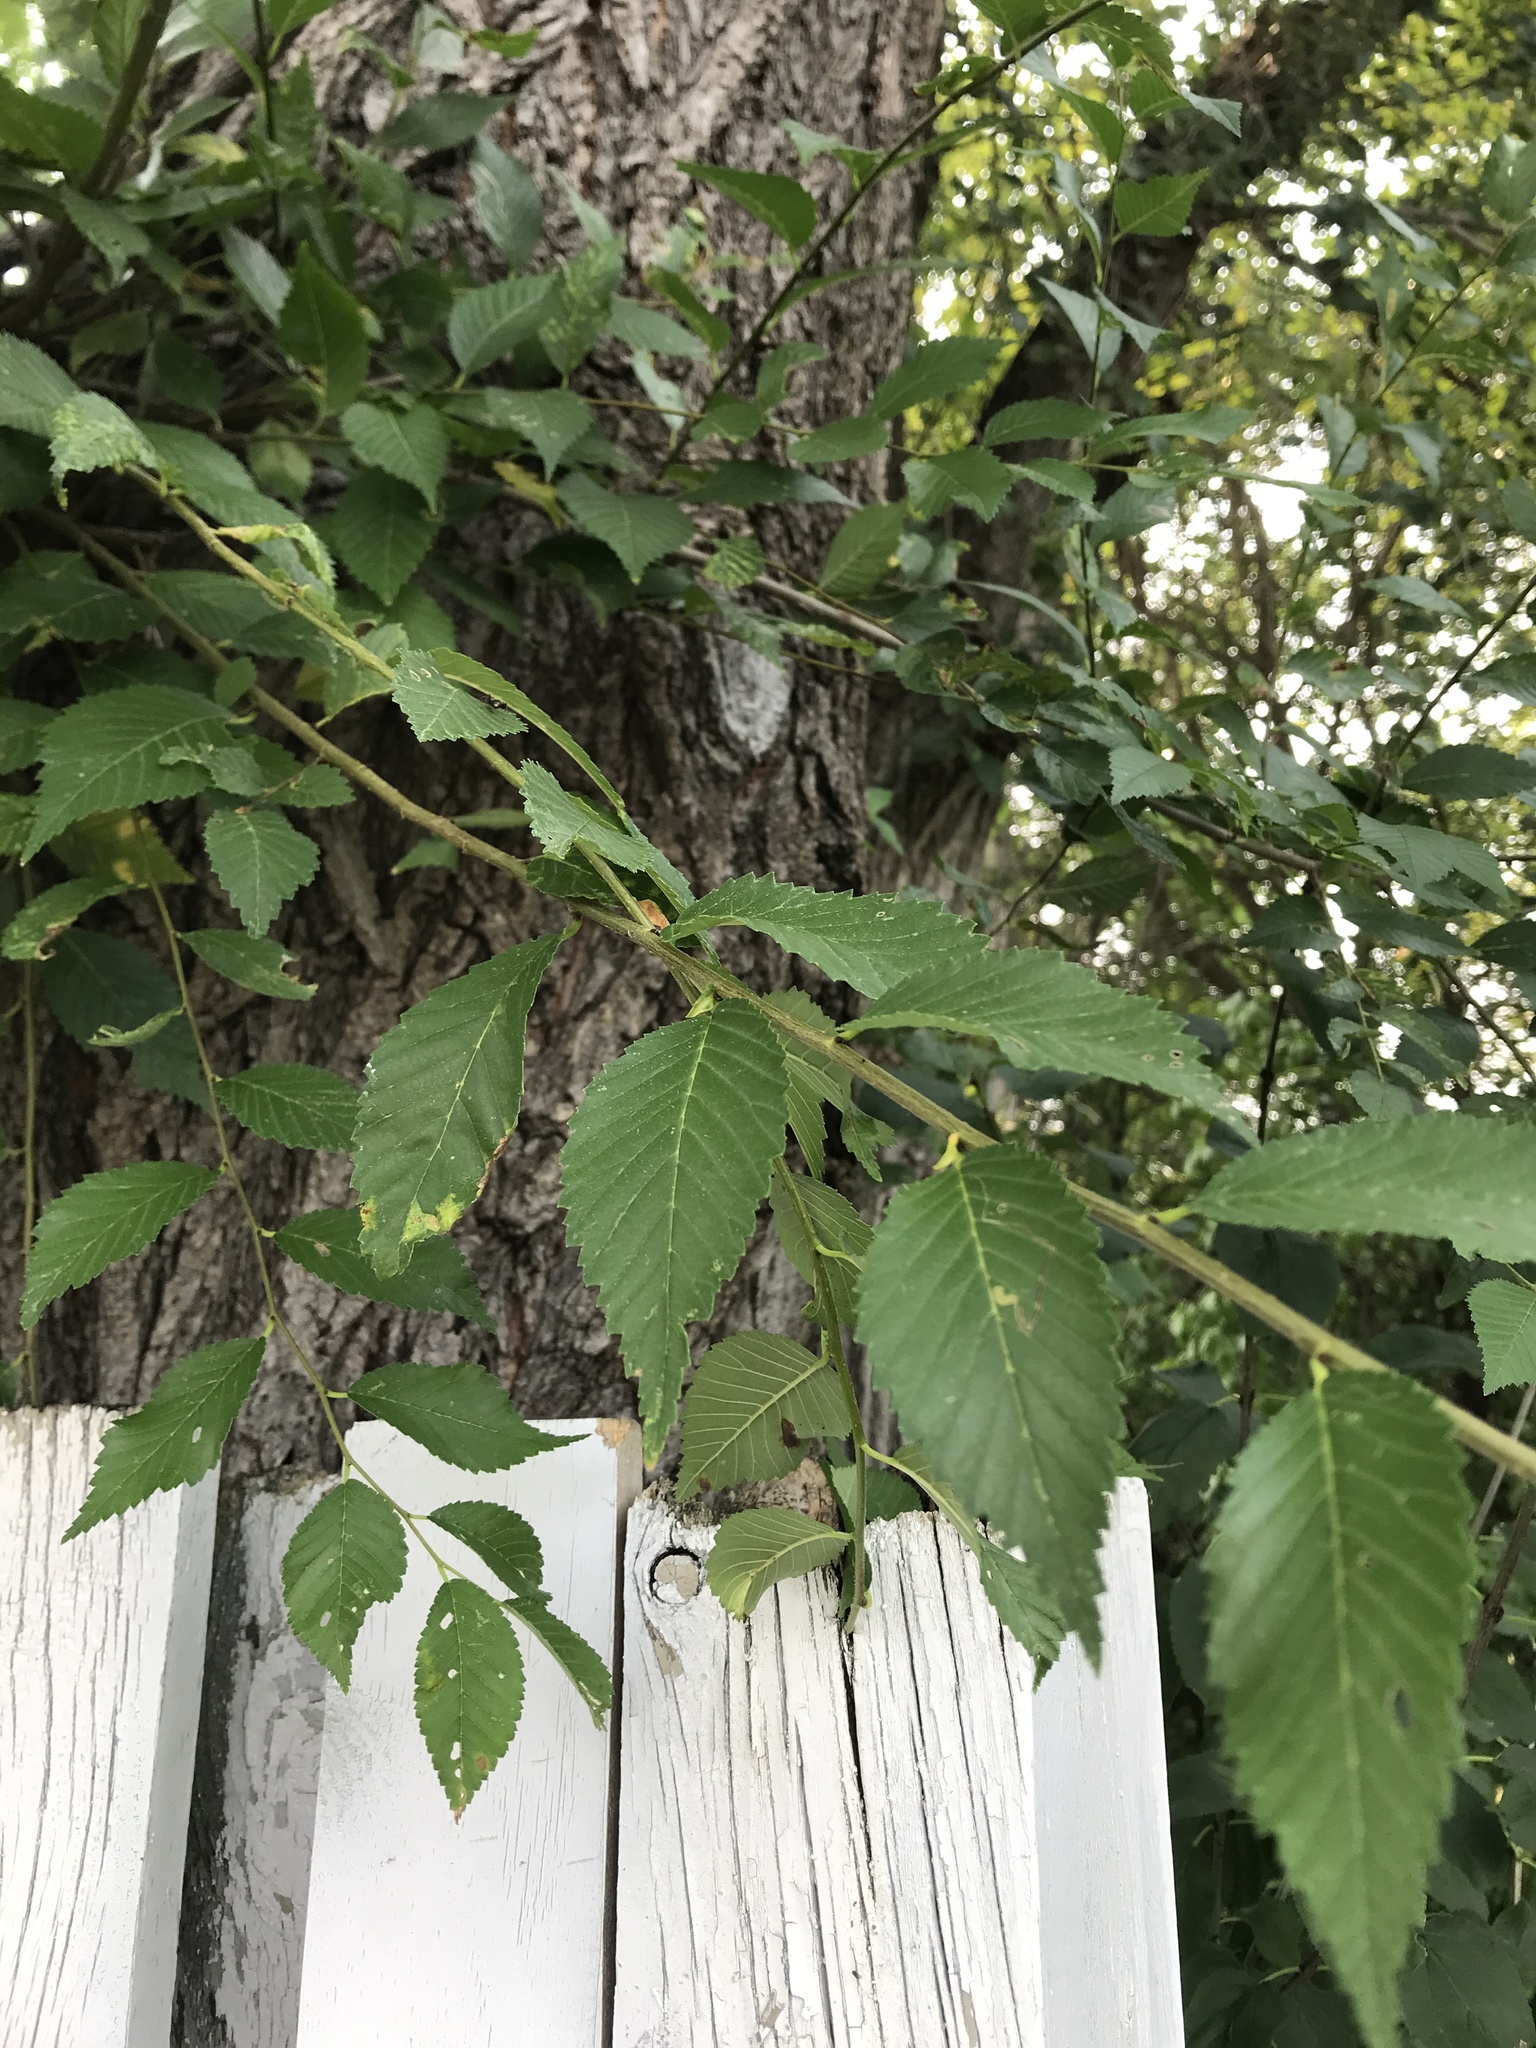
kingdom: Plantae
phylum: Tracheophyta
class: Magnoliopsida
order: Rosales
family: Ulmaceae
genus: Ulmus
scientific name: Ulmus pumila
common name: Siberian elm
